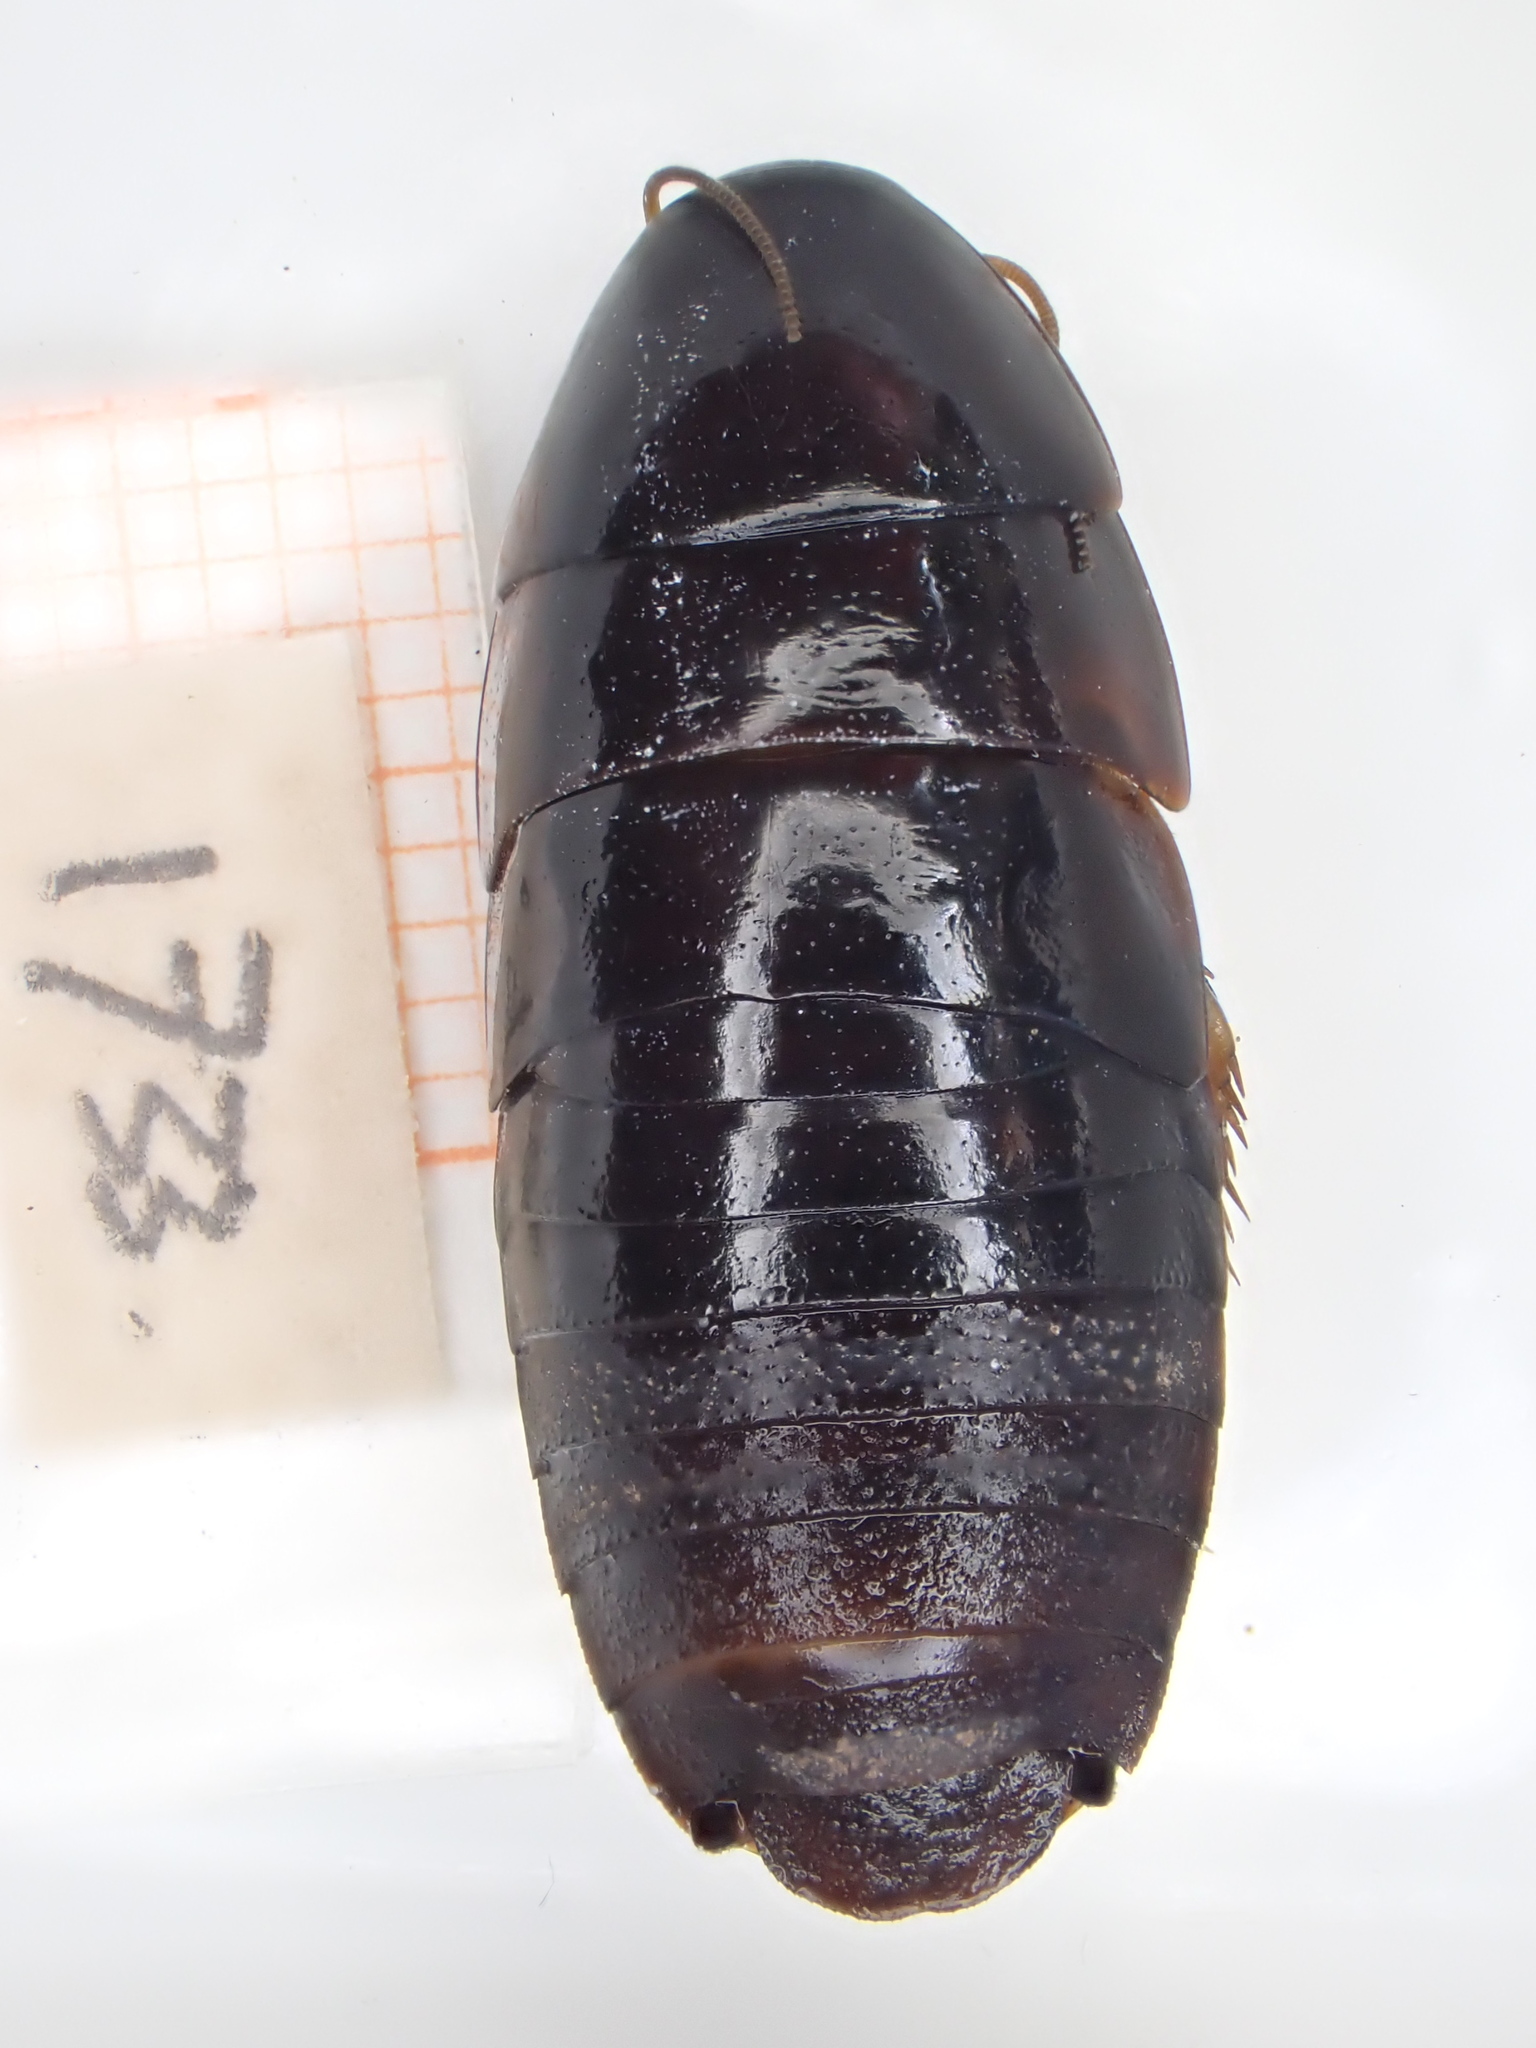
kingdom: Animalia
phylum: Arthropoda
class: Insecta
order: Blattodea
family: Blaberidae
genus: Pycnoscelus
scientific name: Pycnoscelus surinamensis
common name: Surinam cockroach
